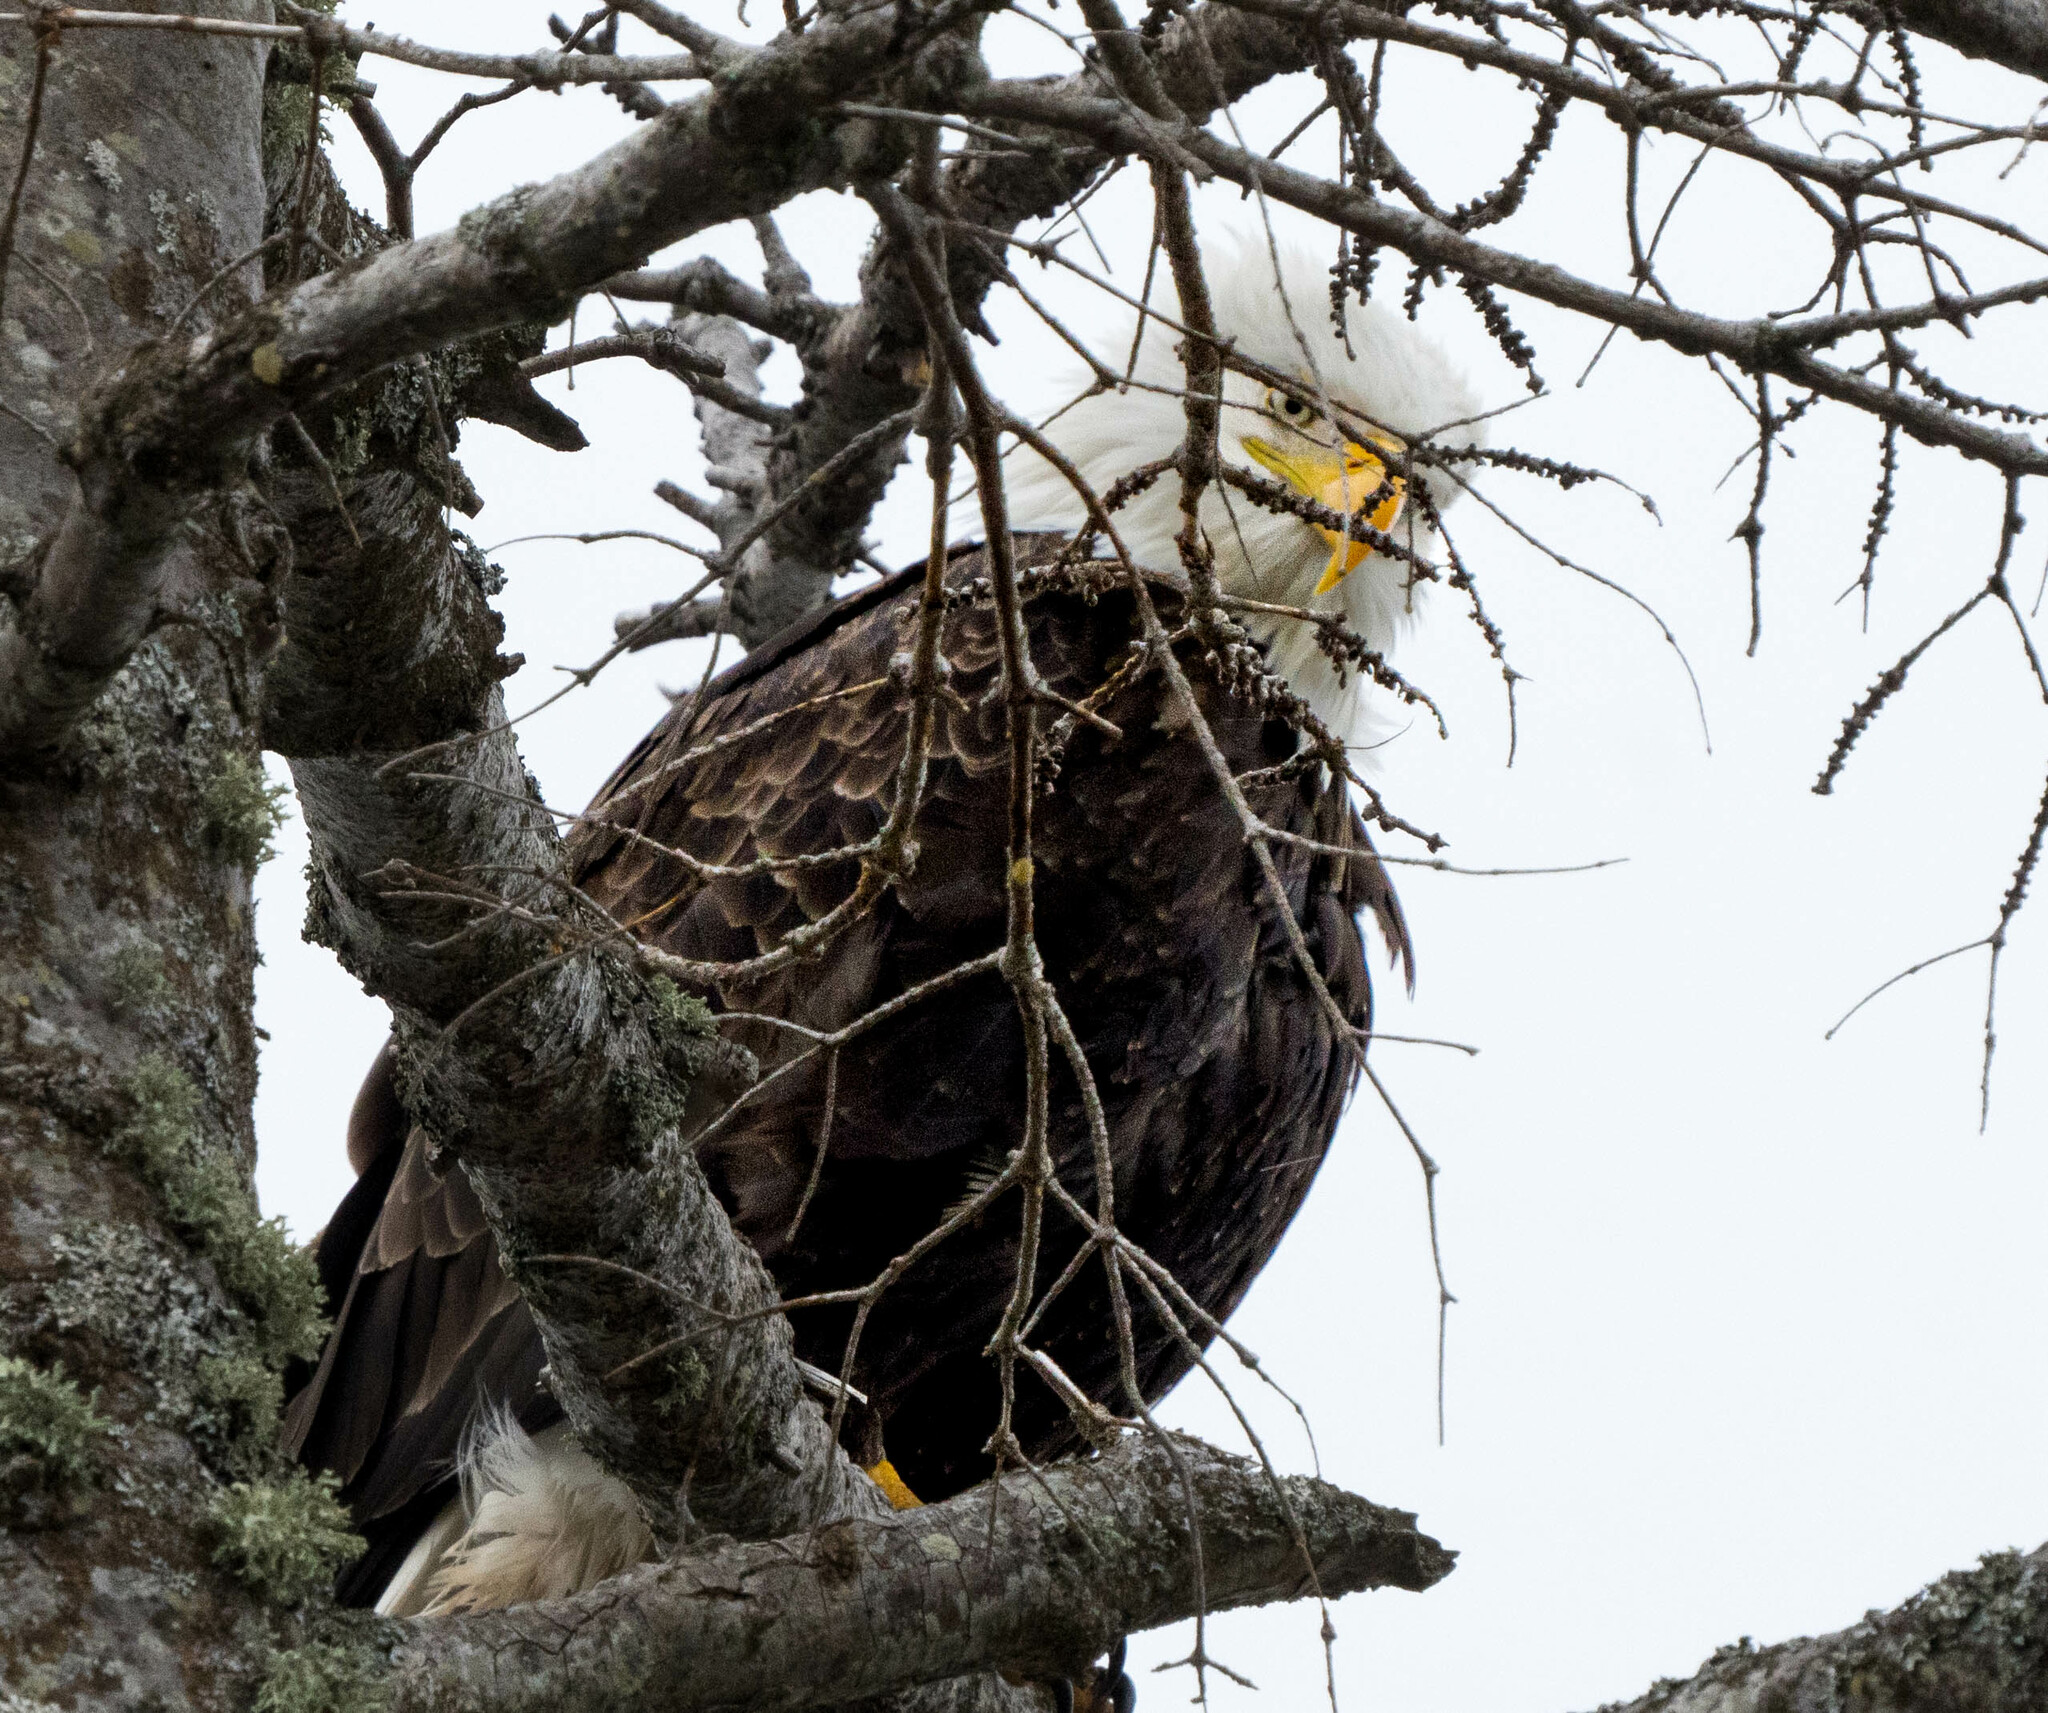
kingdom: Animalia
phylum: Chordata
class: Aves
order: Accipitriformes
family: Accipitridae
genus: Haliaeetus
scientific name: Haliaeetus leucocephalus
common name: Bald eagle
